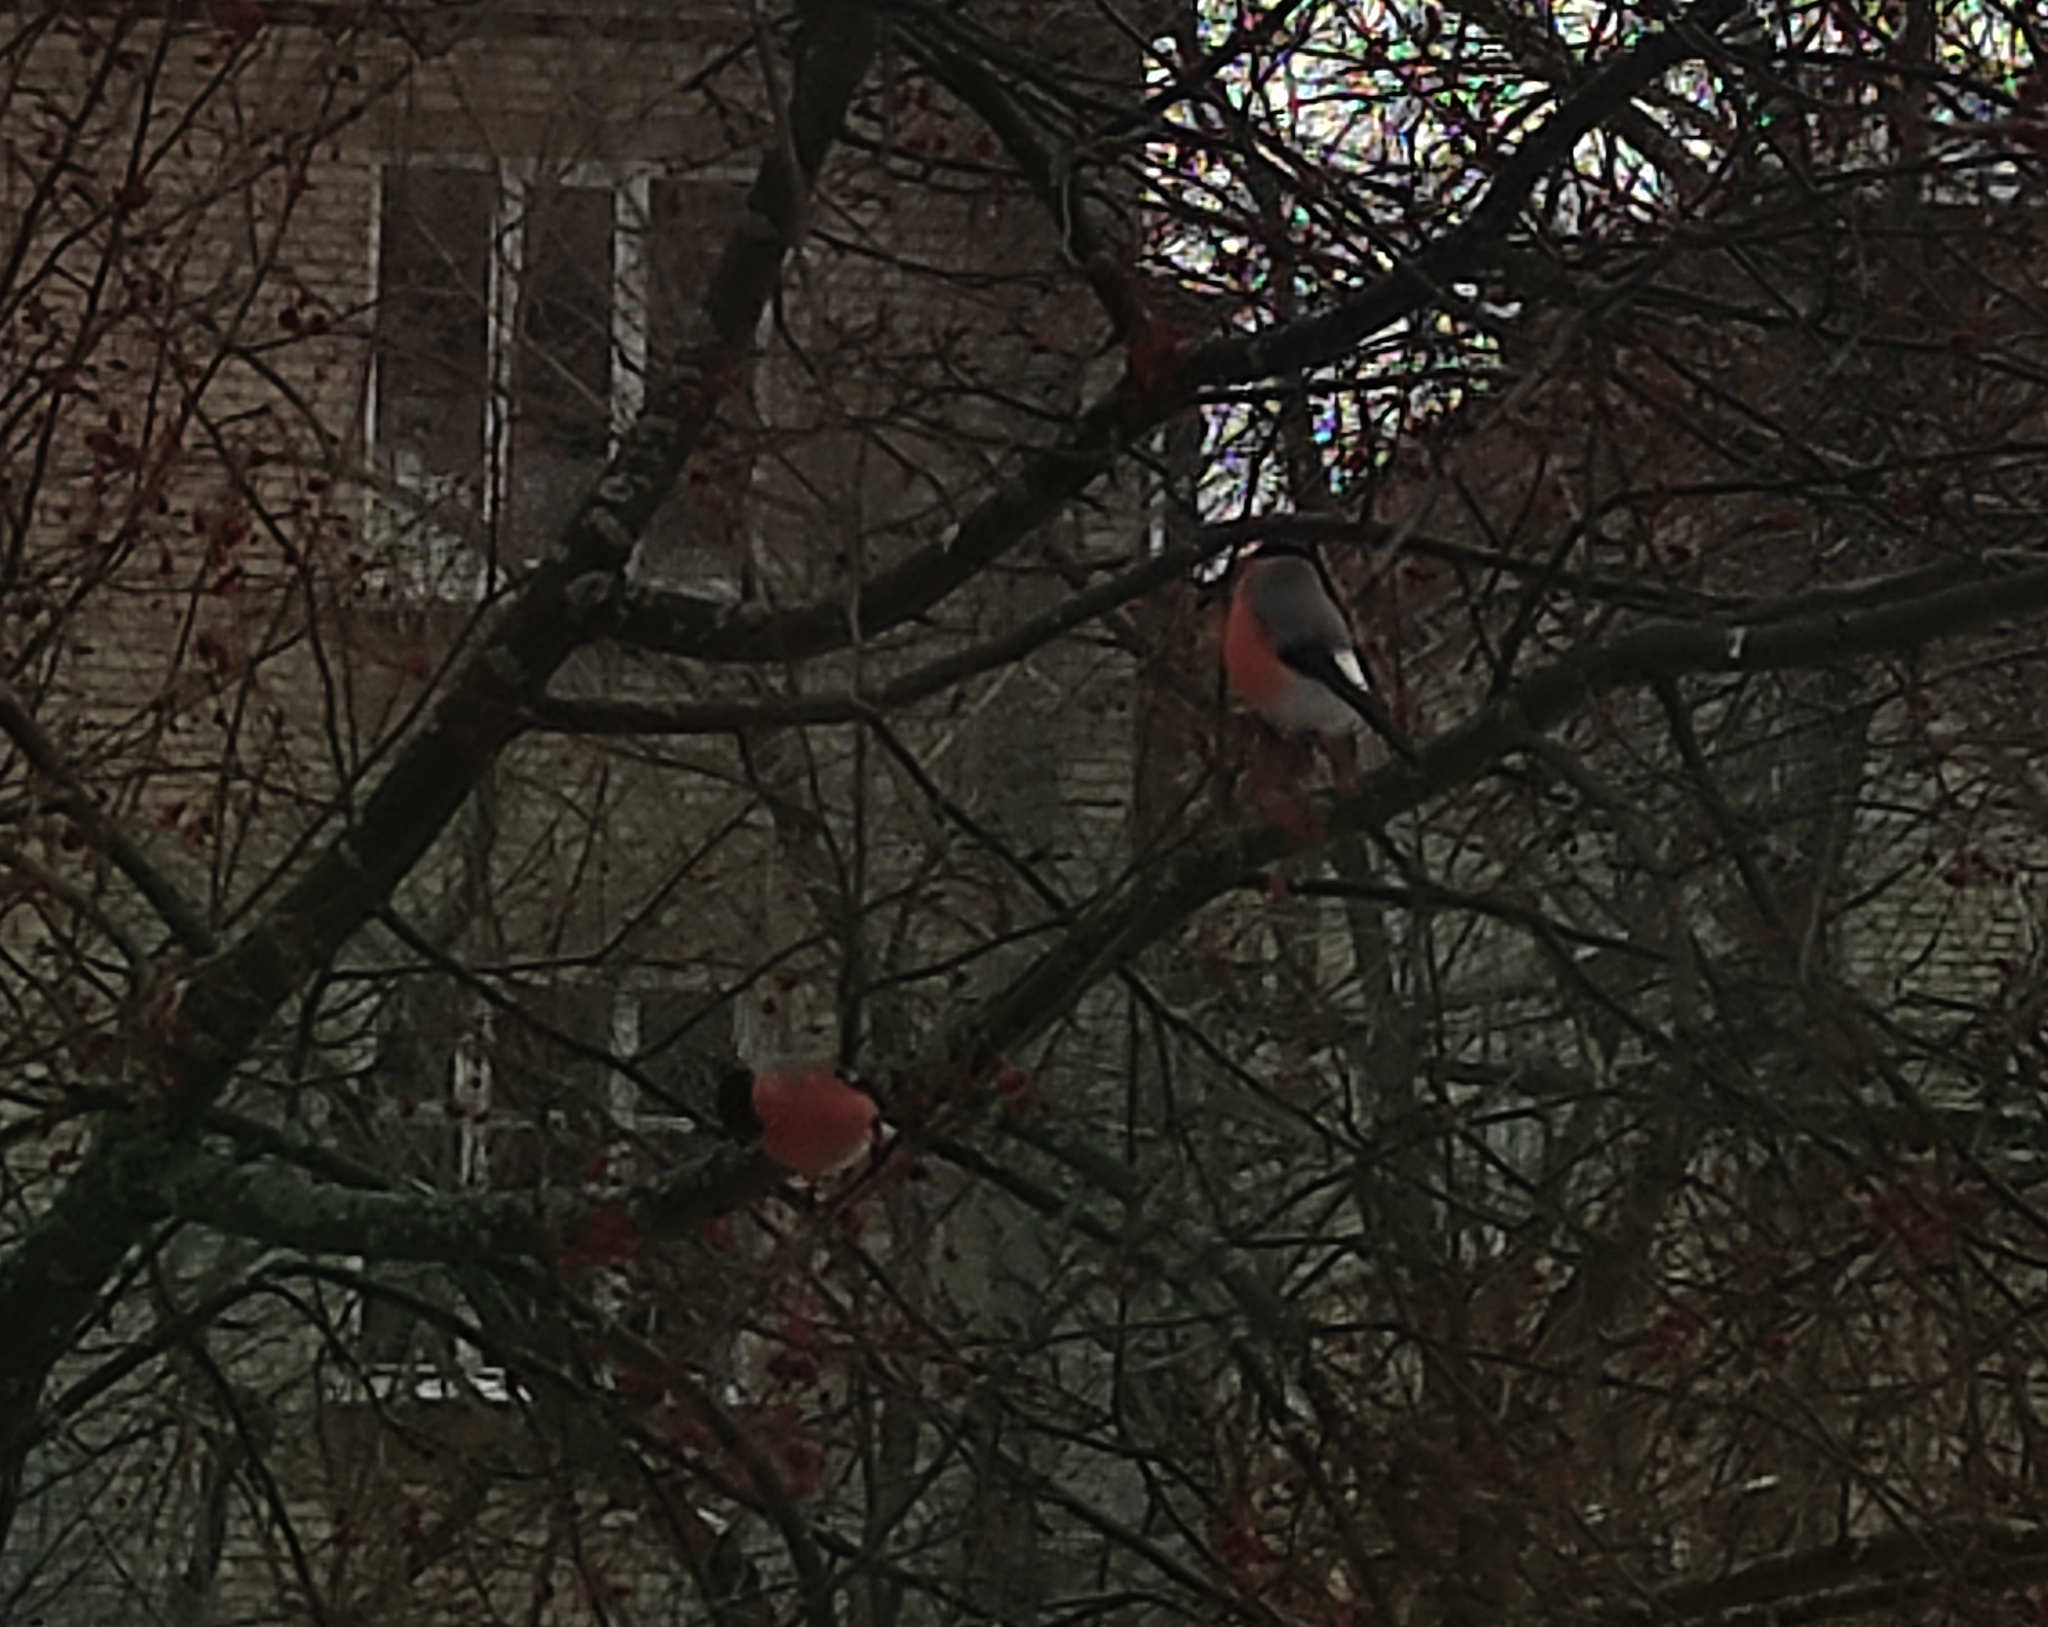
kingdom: Animalia
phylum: Chordata
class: Aves
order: Passeriformes
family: Fringillidae
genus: Pyrrhula
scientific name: Pyrrhula pyrrhula
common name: Eurasian bullfinch
